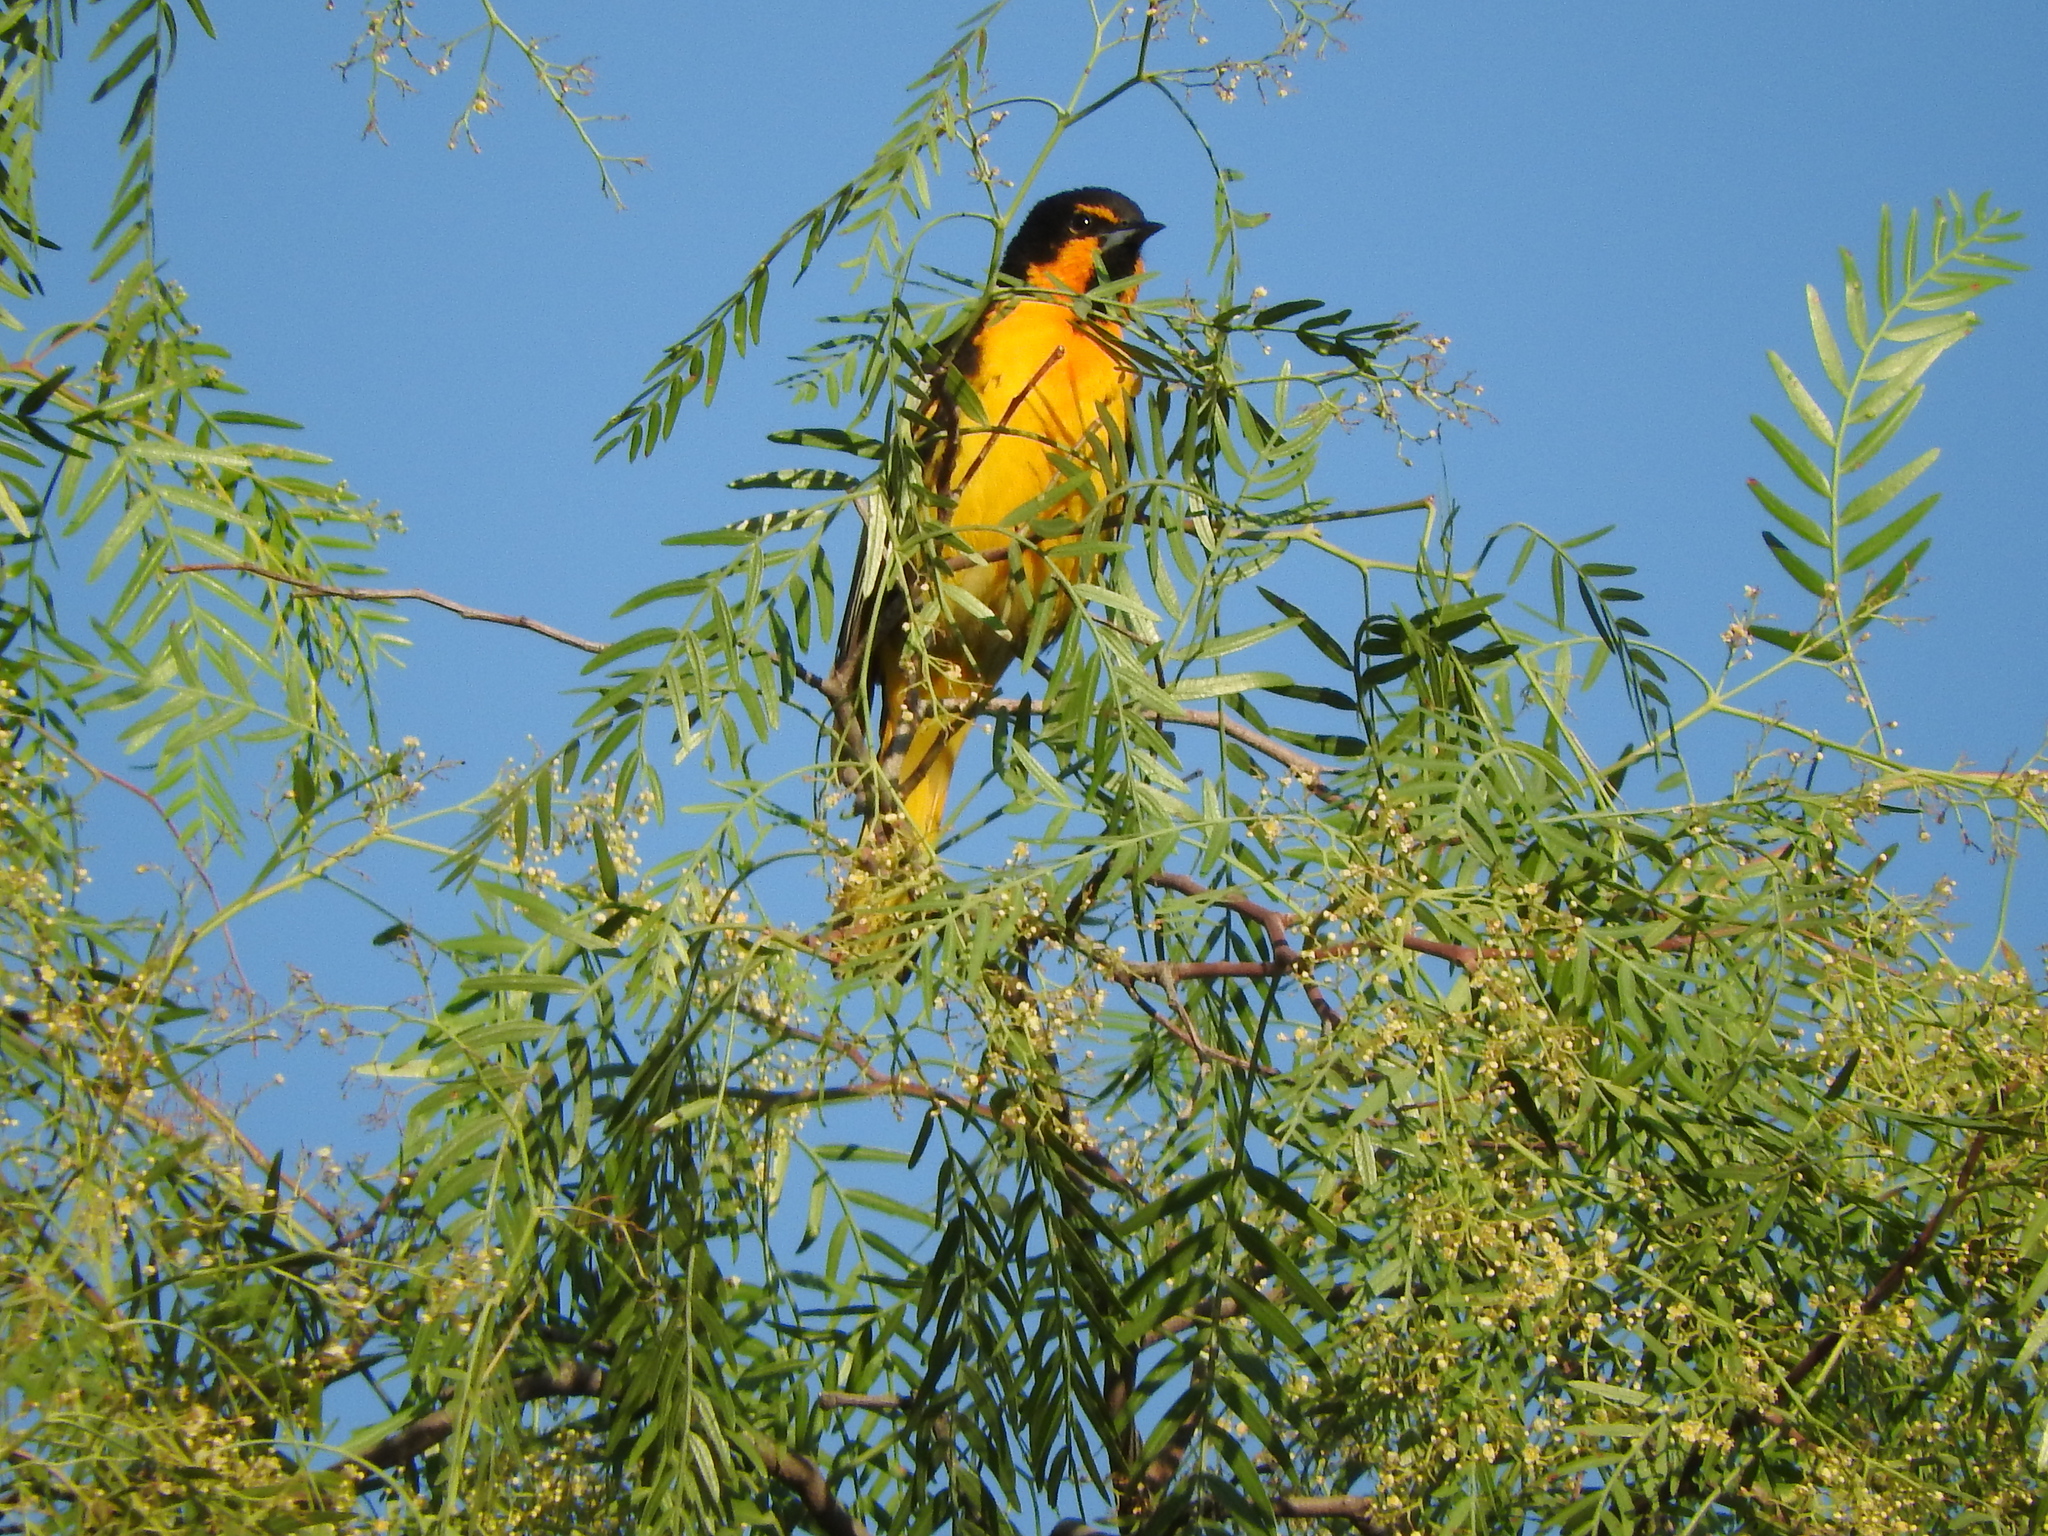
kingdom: Animalia
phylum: Chordata
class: Aves
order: Passeriformes
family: Icteridae
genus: Icterus
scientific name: Icterus abeillei
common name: Black-backed oriole
